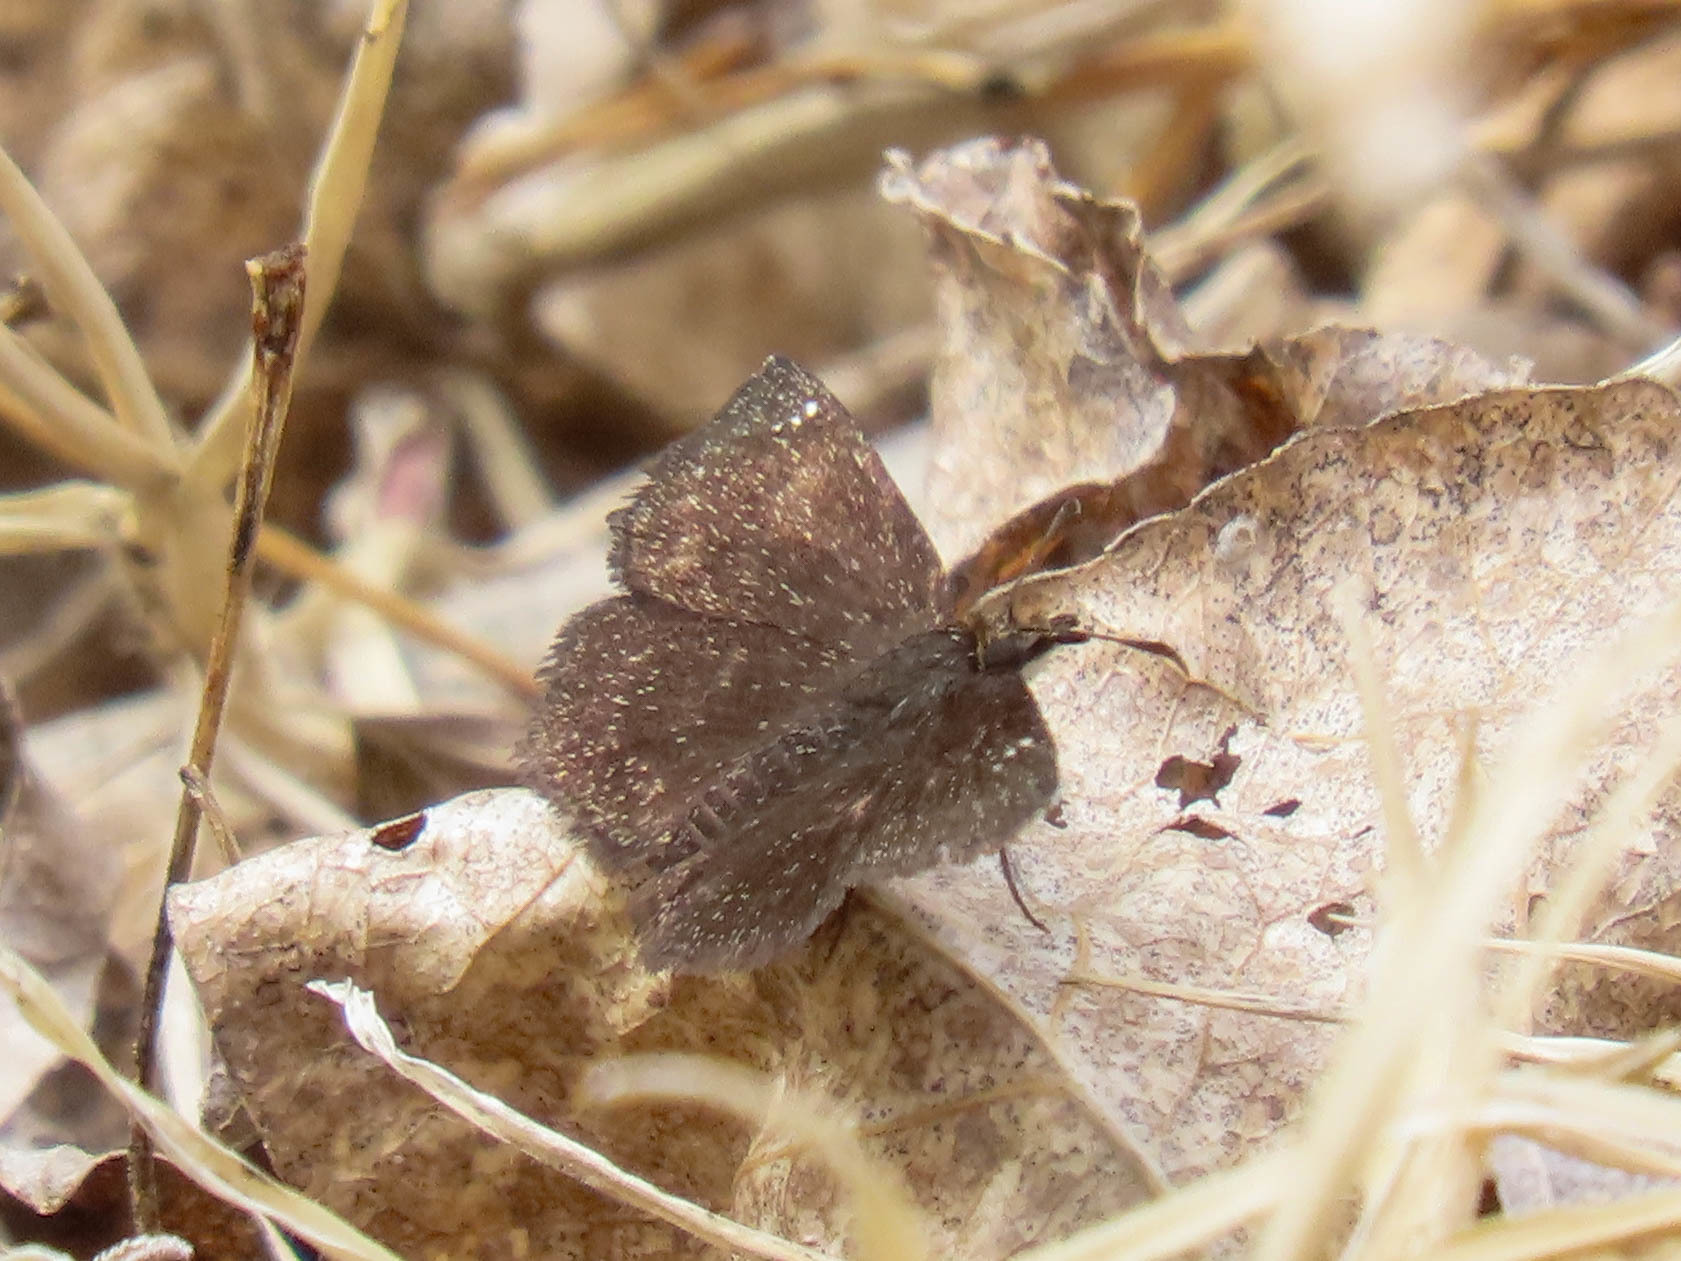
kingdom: Animalia
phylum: Arthropoda
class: Insecta
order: Lepidoptera
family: Hesperiidae
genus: Staphylus
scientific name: Staphylus ceos
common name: Golden-headed scallopwing
